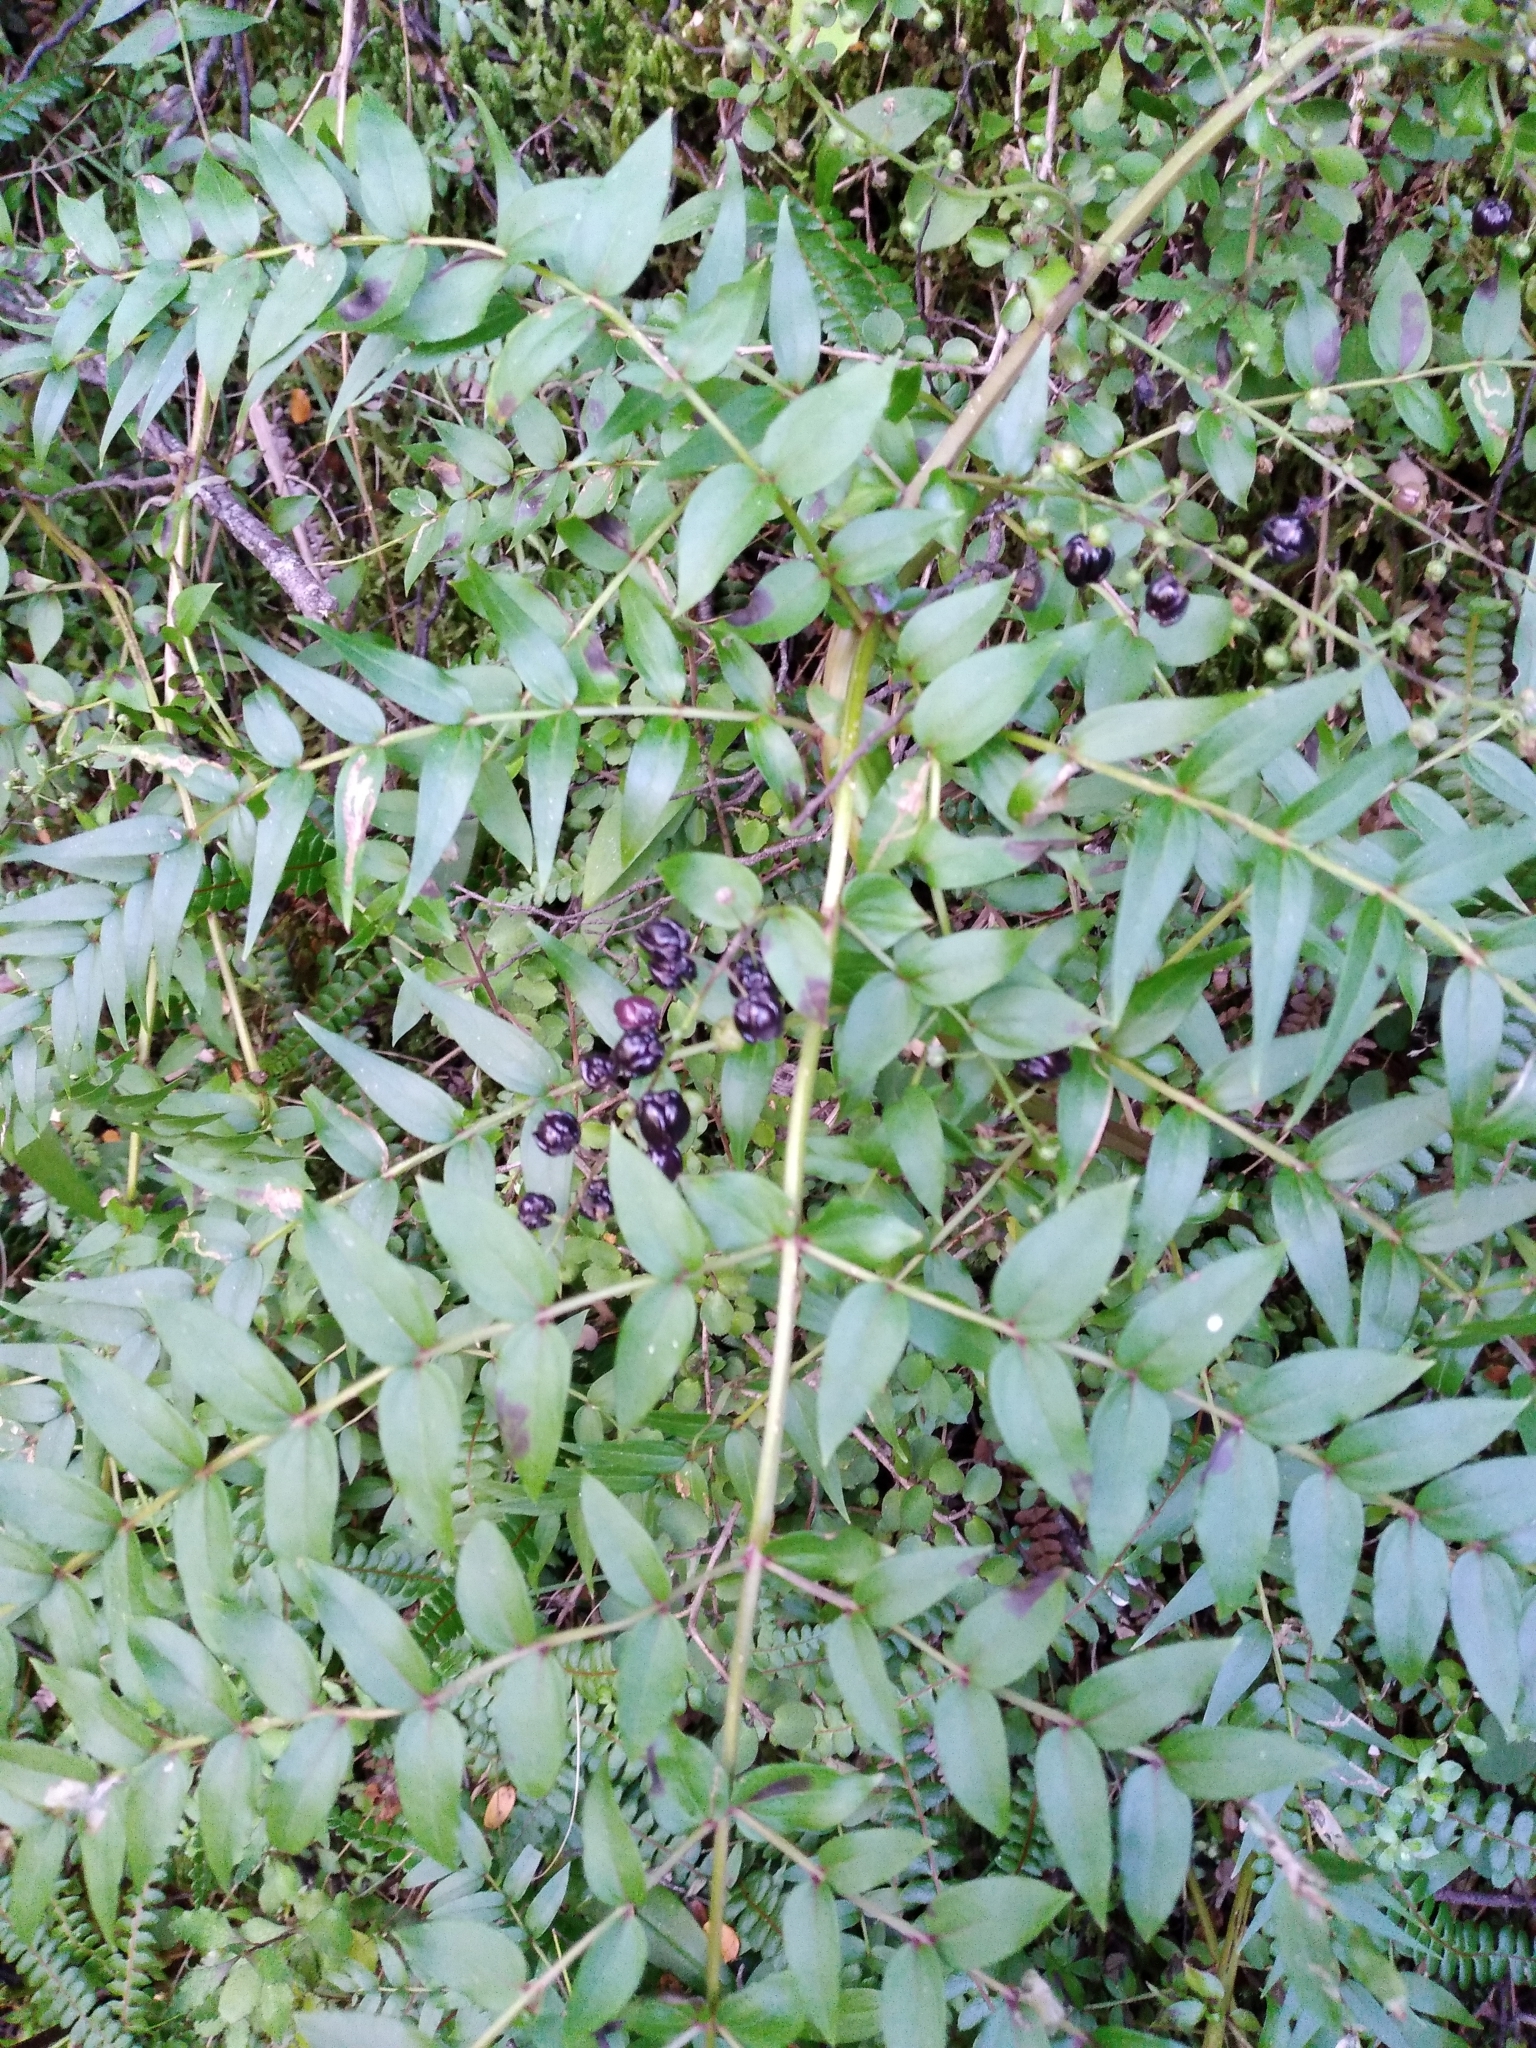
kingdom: Plantae
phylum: Tracheophyta
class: Magnoliopsida
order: Cucurbitales
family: Coriariaceae
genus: Coriaria
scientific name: Coriaria plumosa
